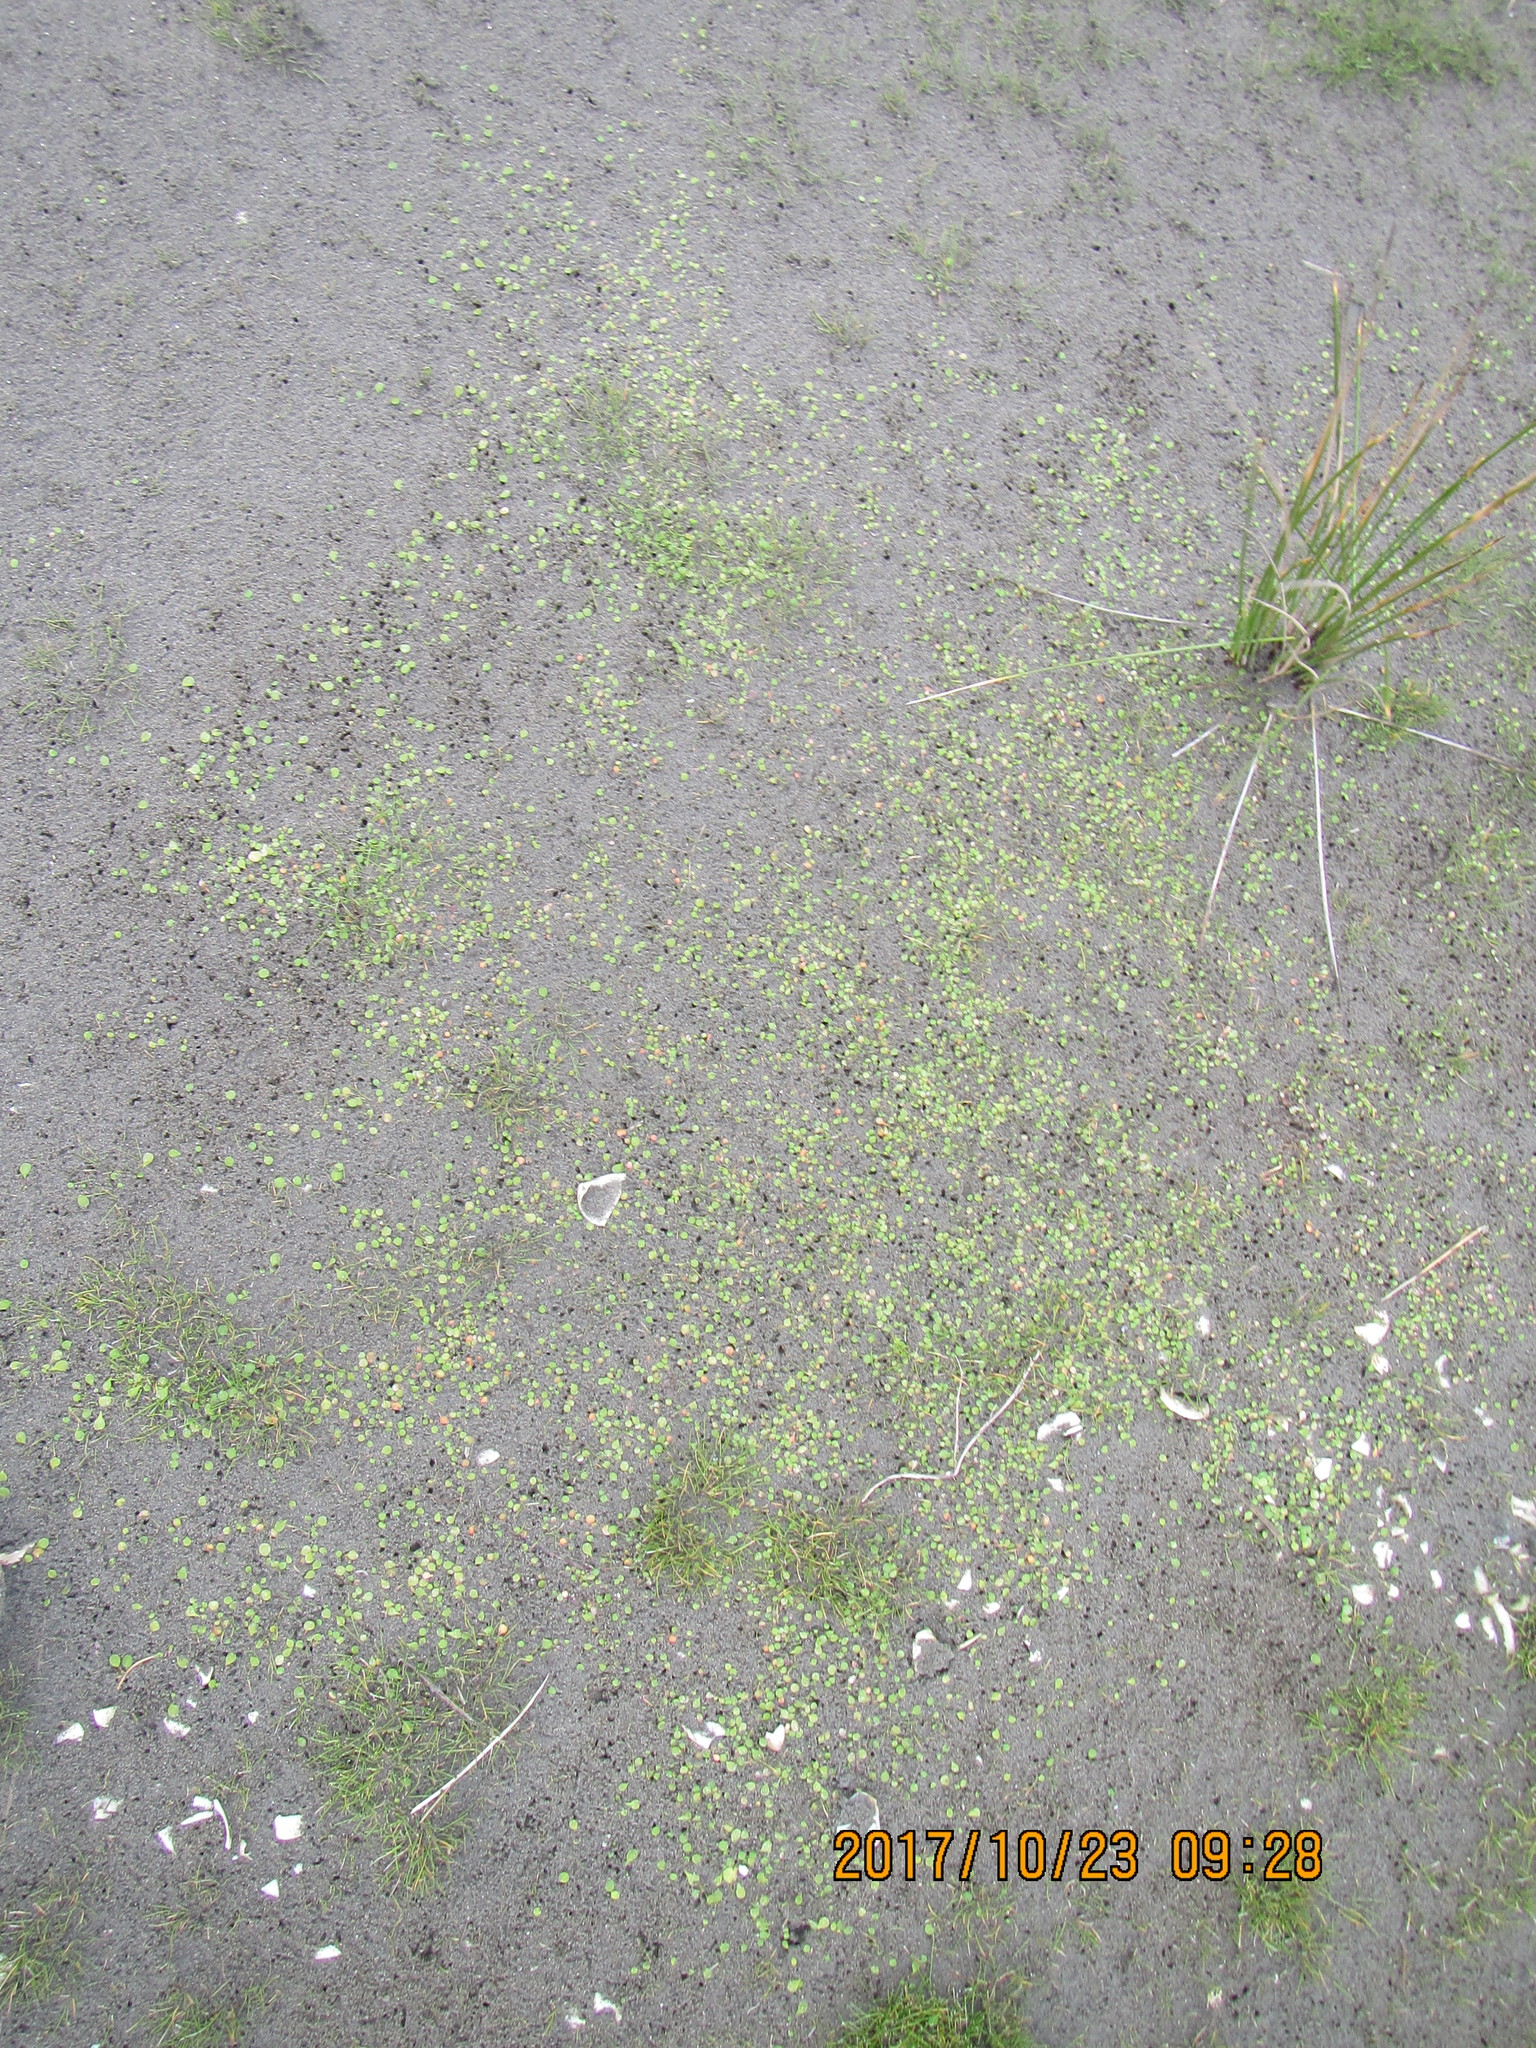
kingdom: Plantae
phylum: Tracheophyta
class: Magnoliopsida
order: Asterales
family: Goodeniaceae
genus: Goodenia
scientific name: Goodenia heenanii
